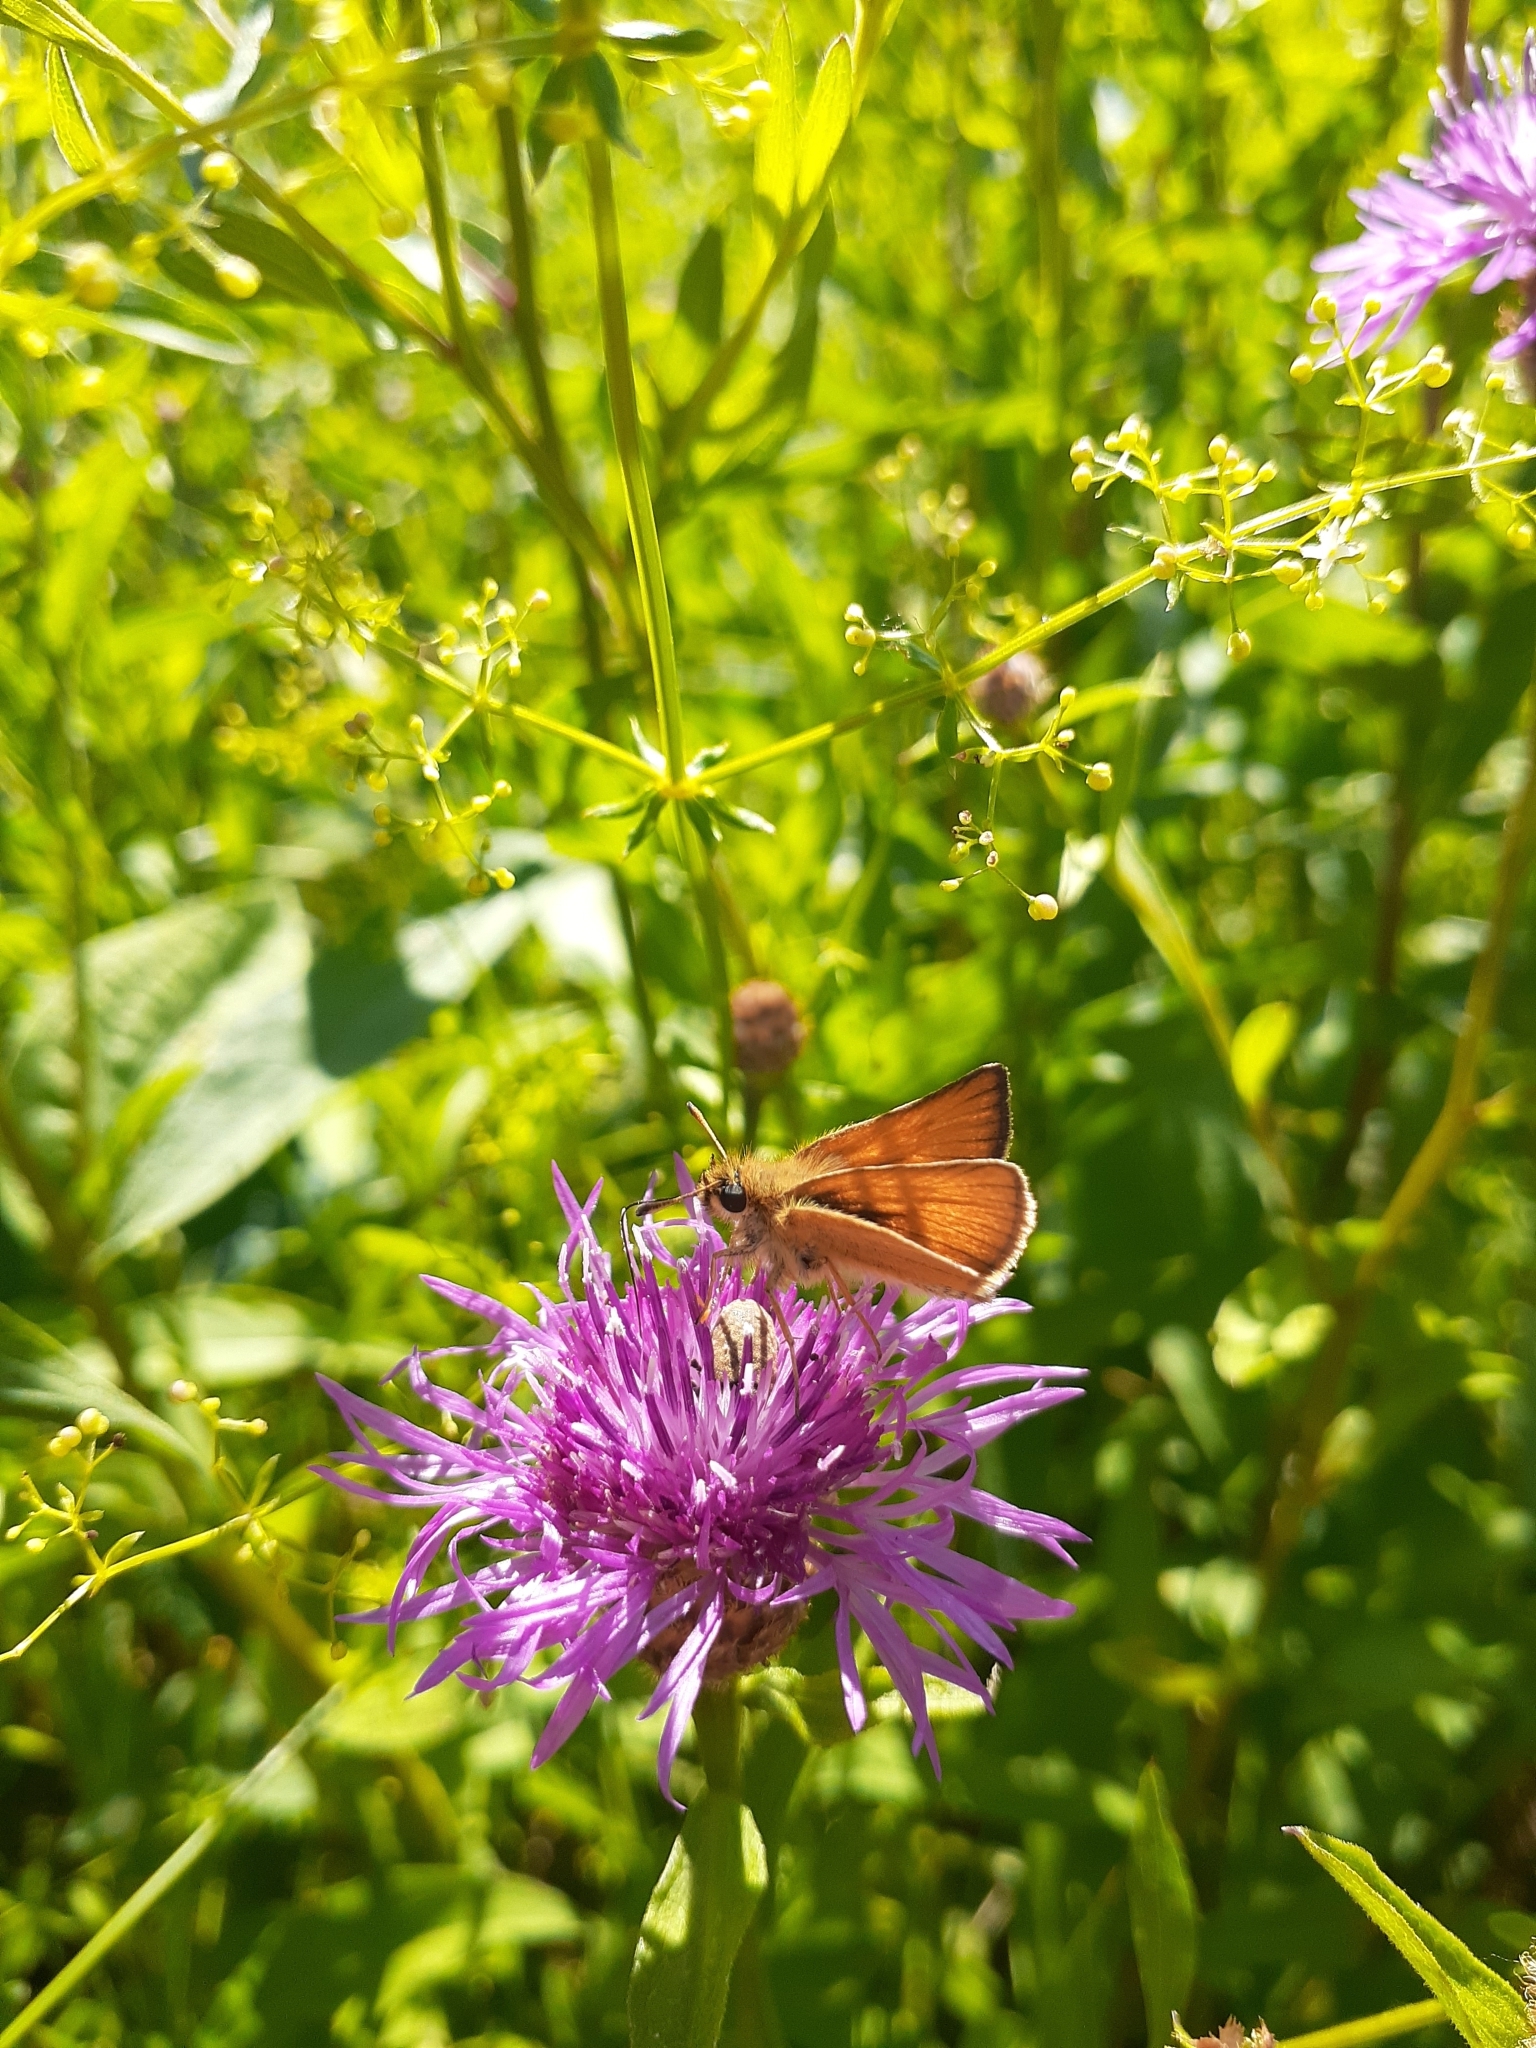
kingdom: Animalia
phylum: Arthropoda
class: Insecta
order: Lepidoptera
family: Hesperiidae
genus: Thymelicus
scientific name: Thymelicus lineola
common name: Essex skipper
